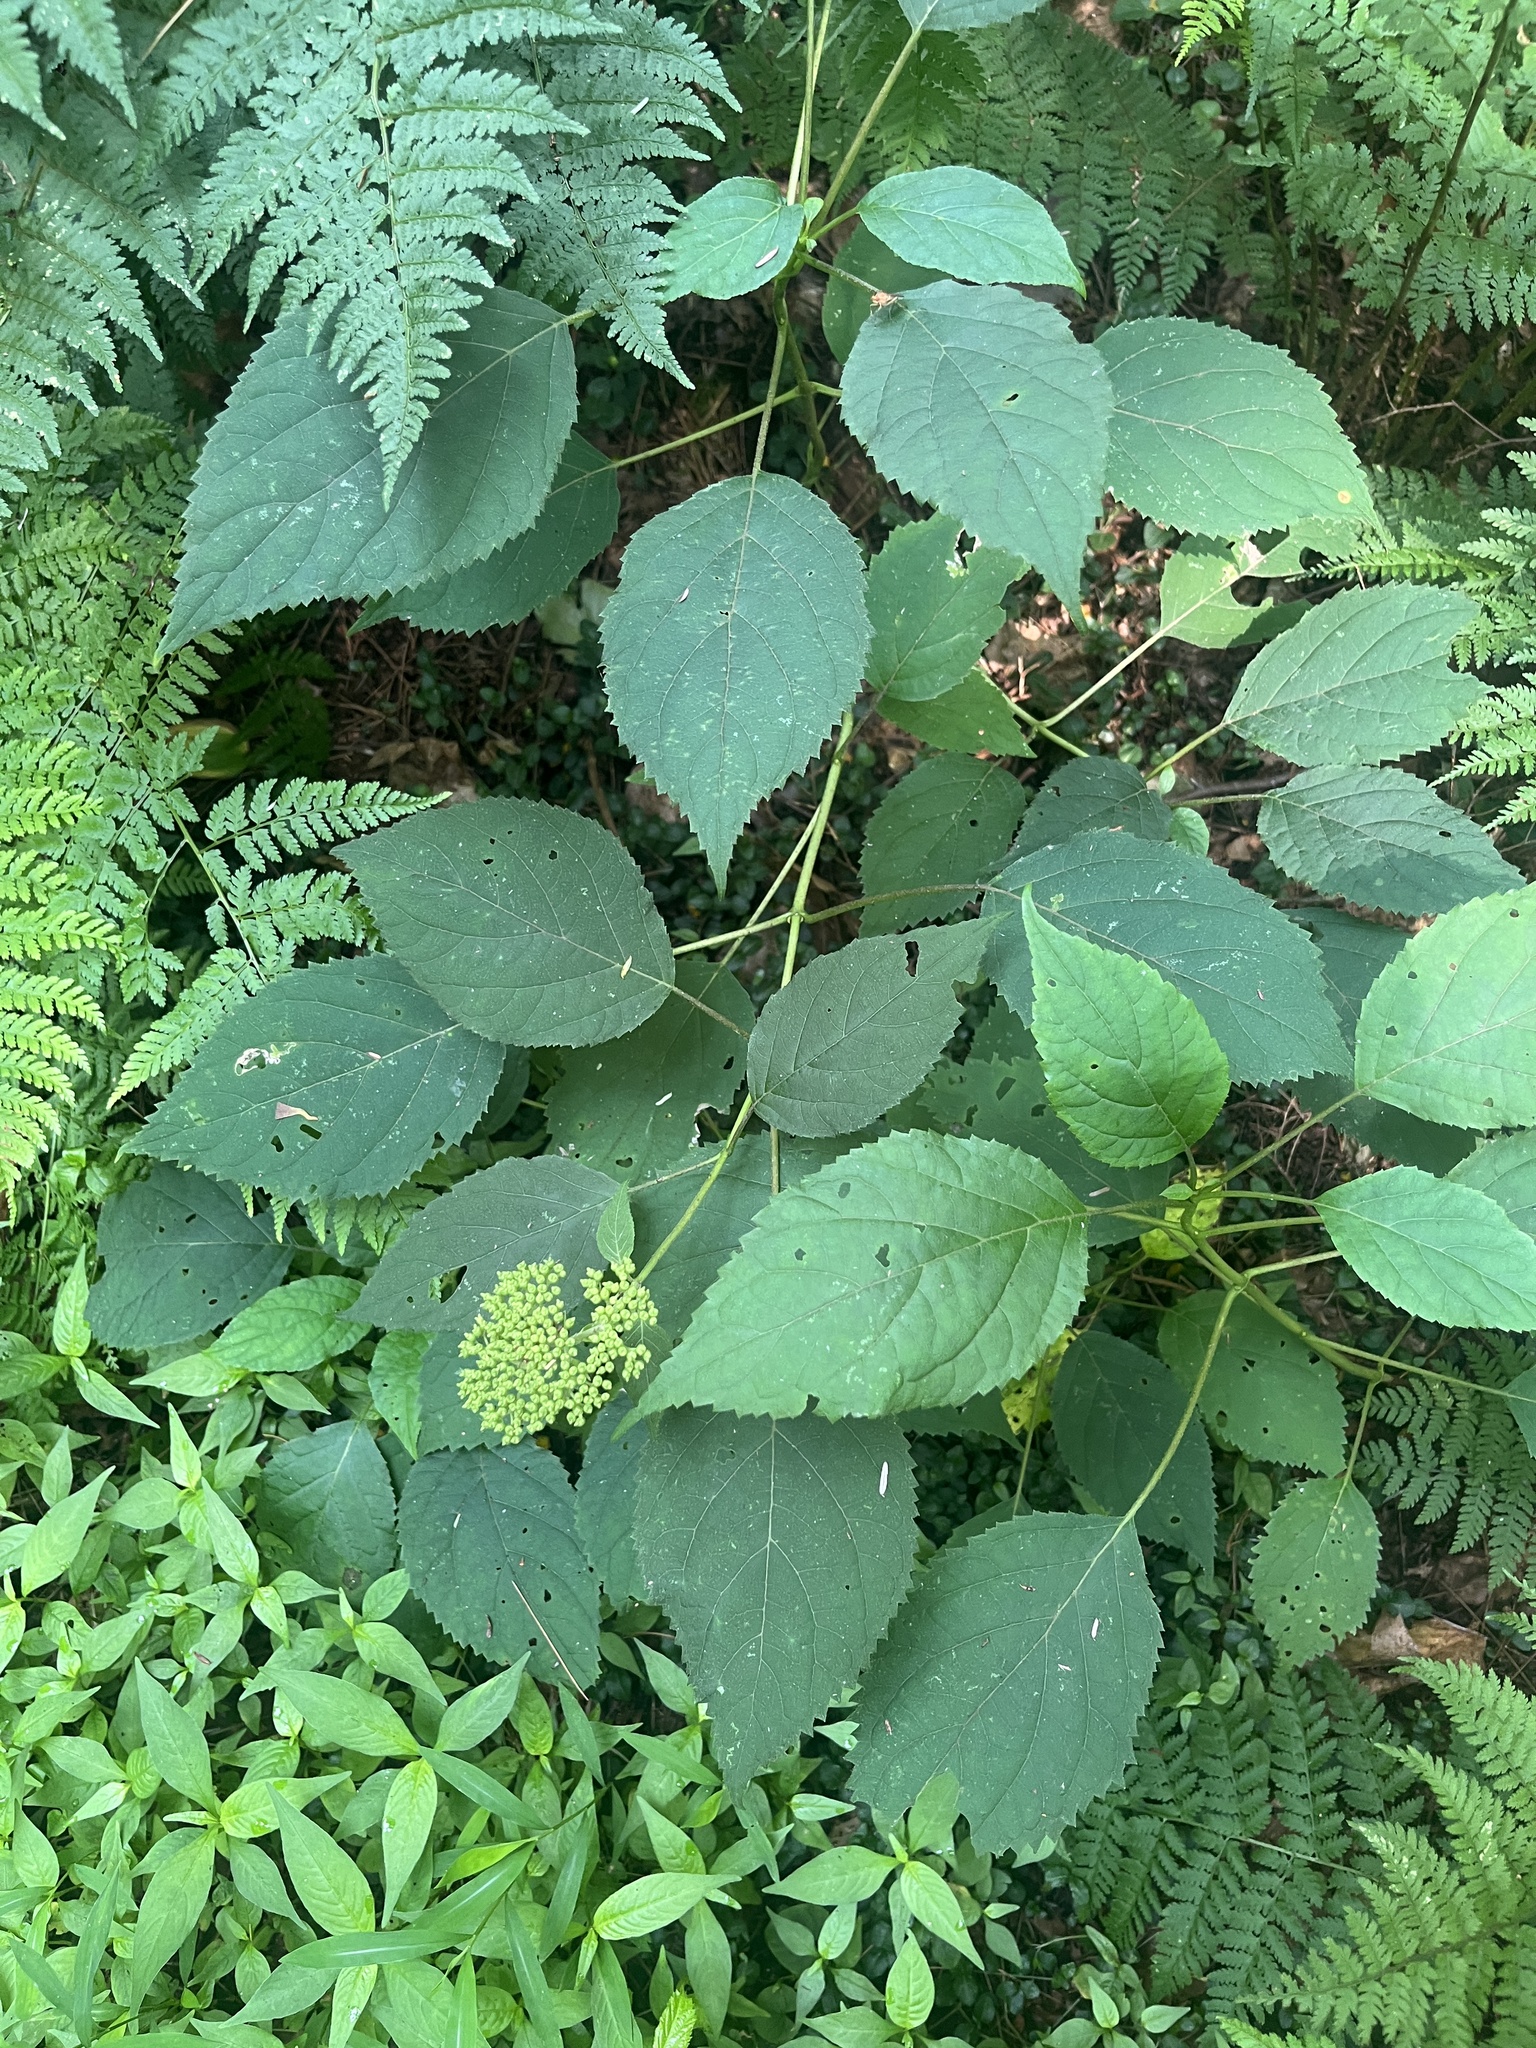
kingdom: Plantae
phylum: Tracheophyta
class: Magnoliopsida
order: Cornales
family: Hydrangeaceae
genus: Hydrangea
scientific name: Hydrangea arborescens
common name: Sevenbark
